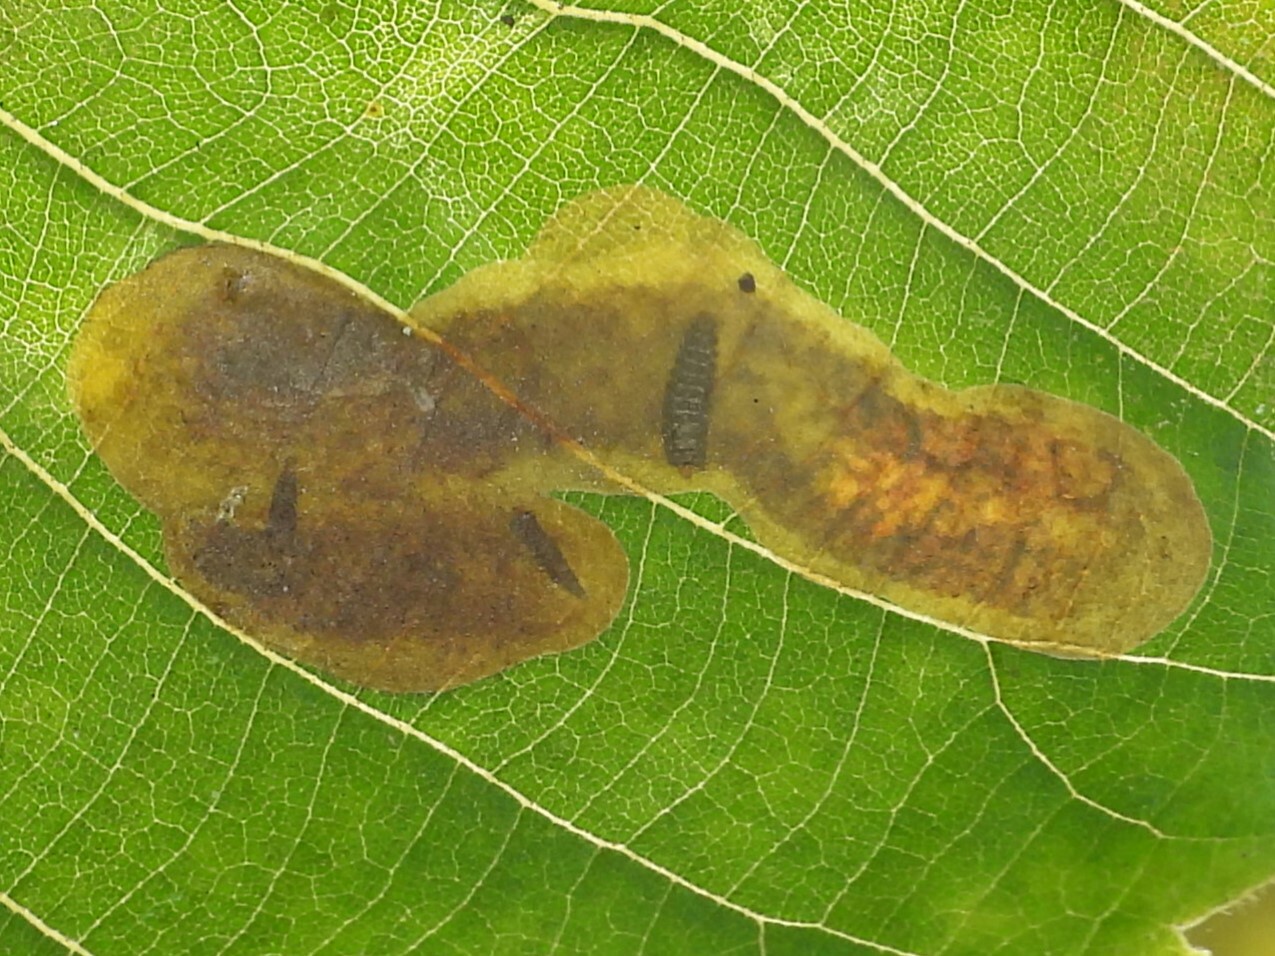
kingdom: Animalia
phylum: Arthropoda
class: Insecta
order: Lepidoptera
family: Gracillariidae
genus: Cameraria
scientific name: Cameraria caryaefoliella
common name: Pecan leafminer moth
